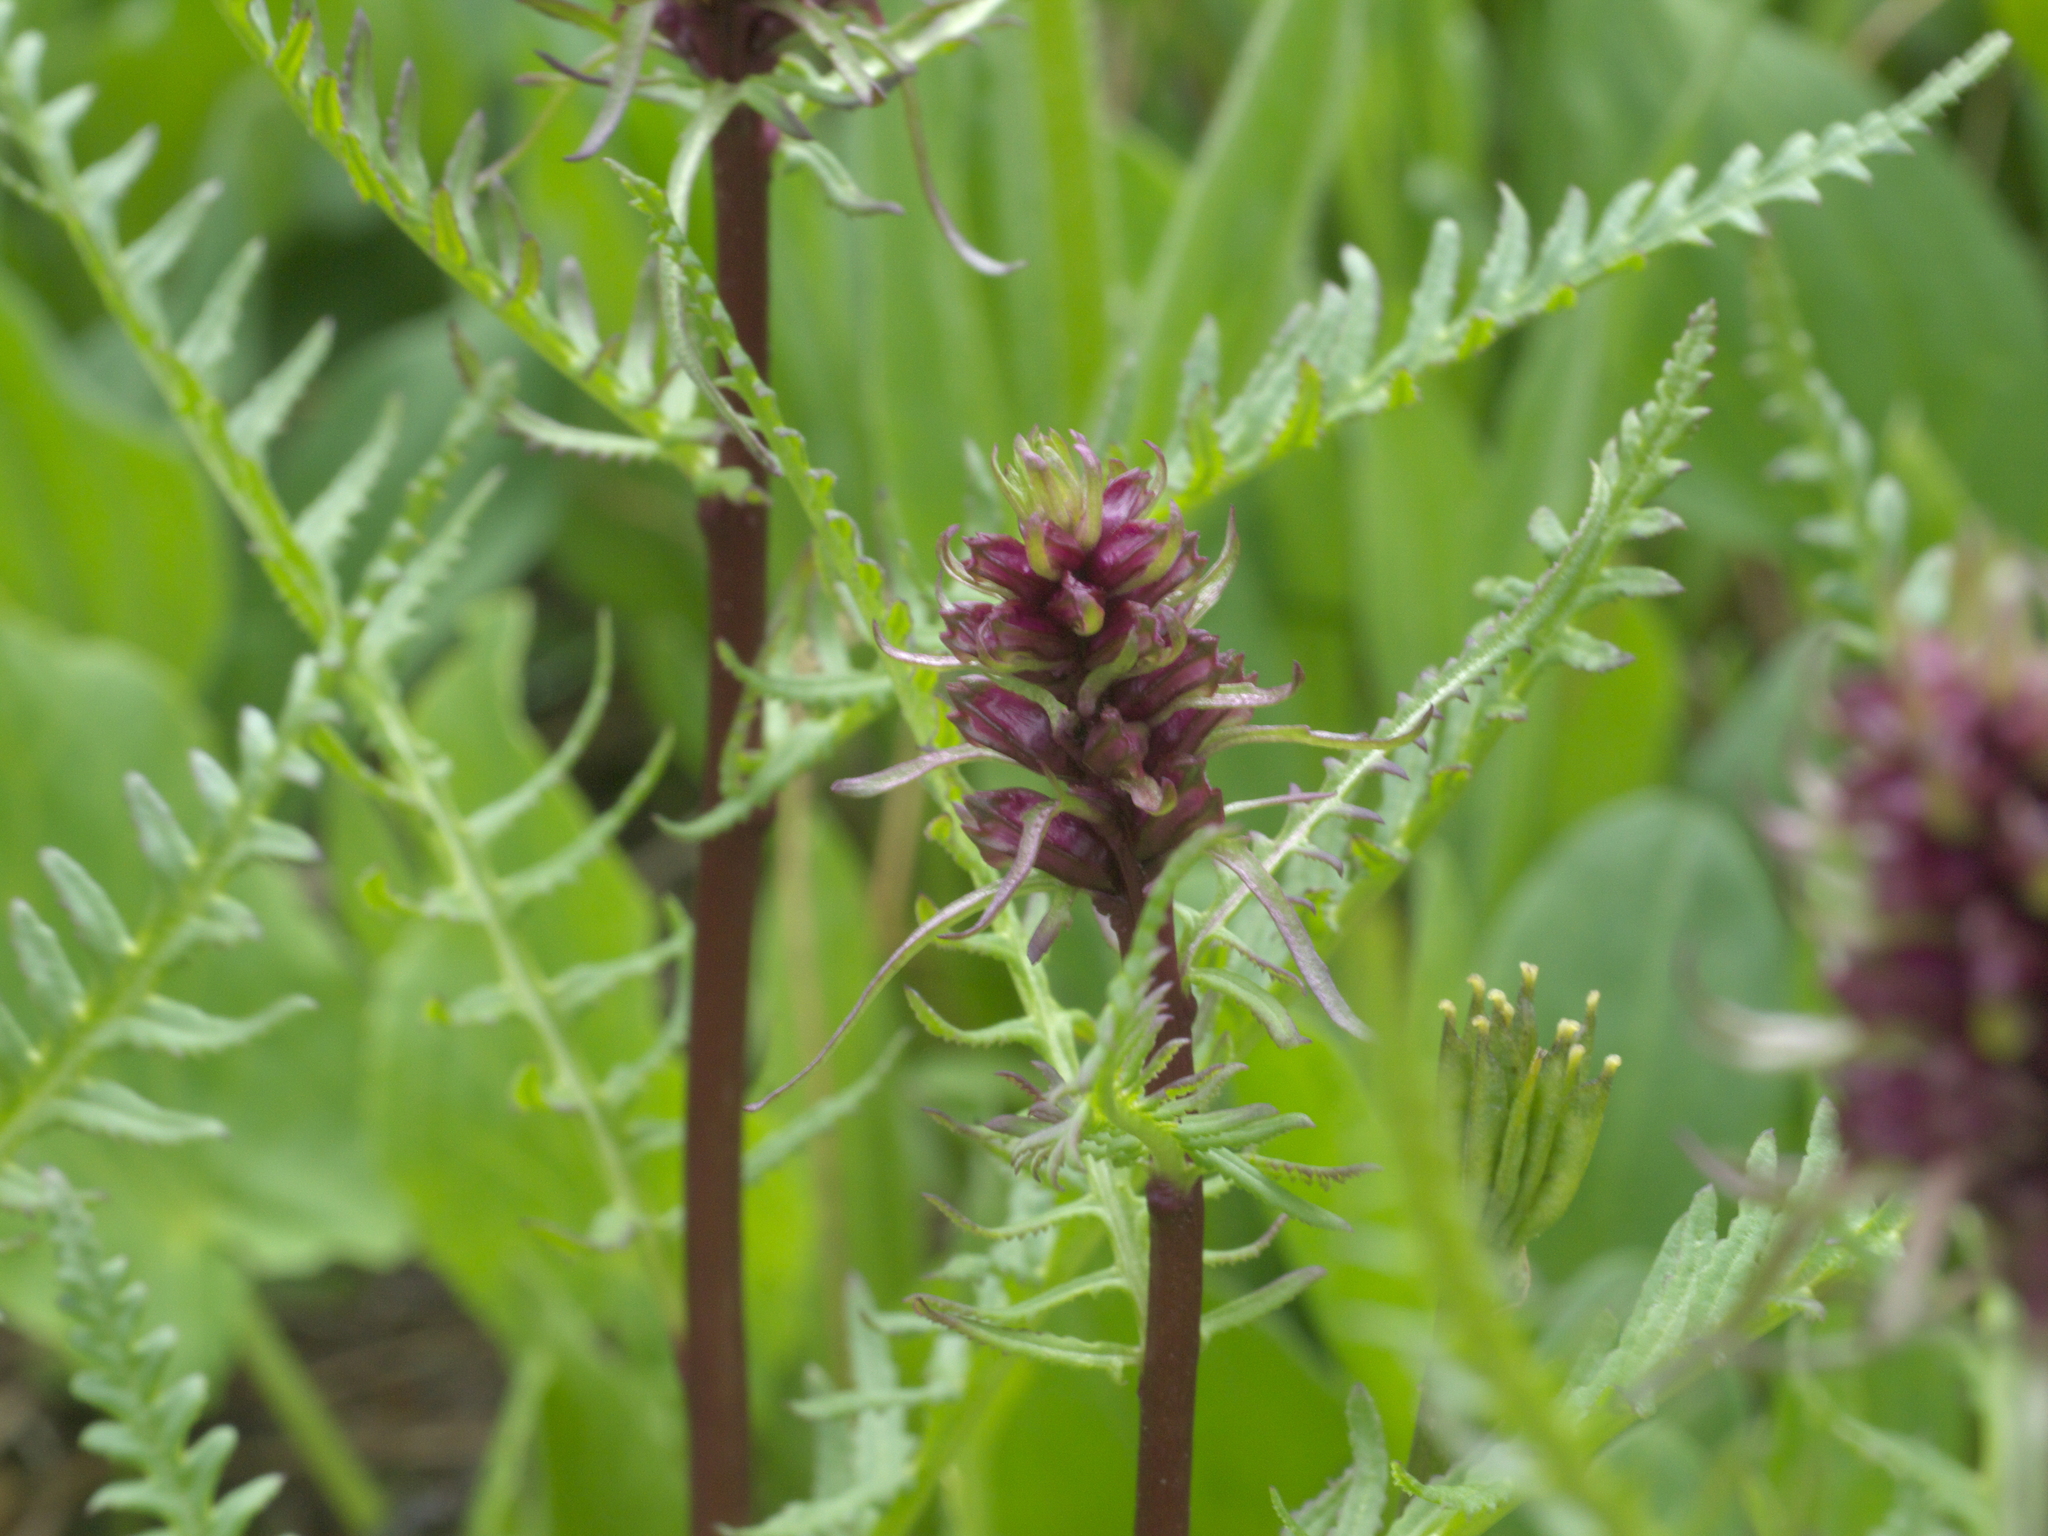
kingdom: Plantae
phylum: Tracheophyta
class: Magnoliopsida
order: Lamiales
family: Orobanchaceae
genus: Pedicularis
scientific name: Pedicularis groenlandica
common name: Elephant's-head
